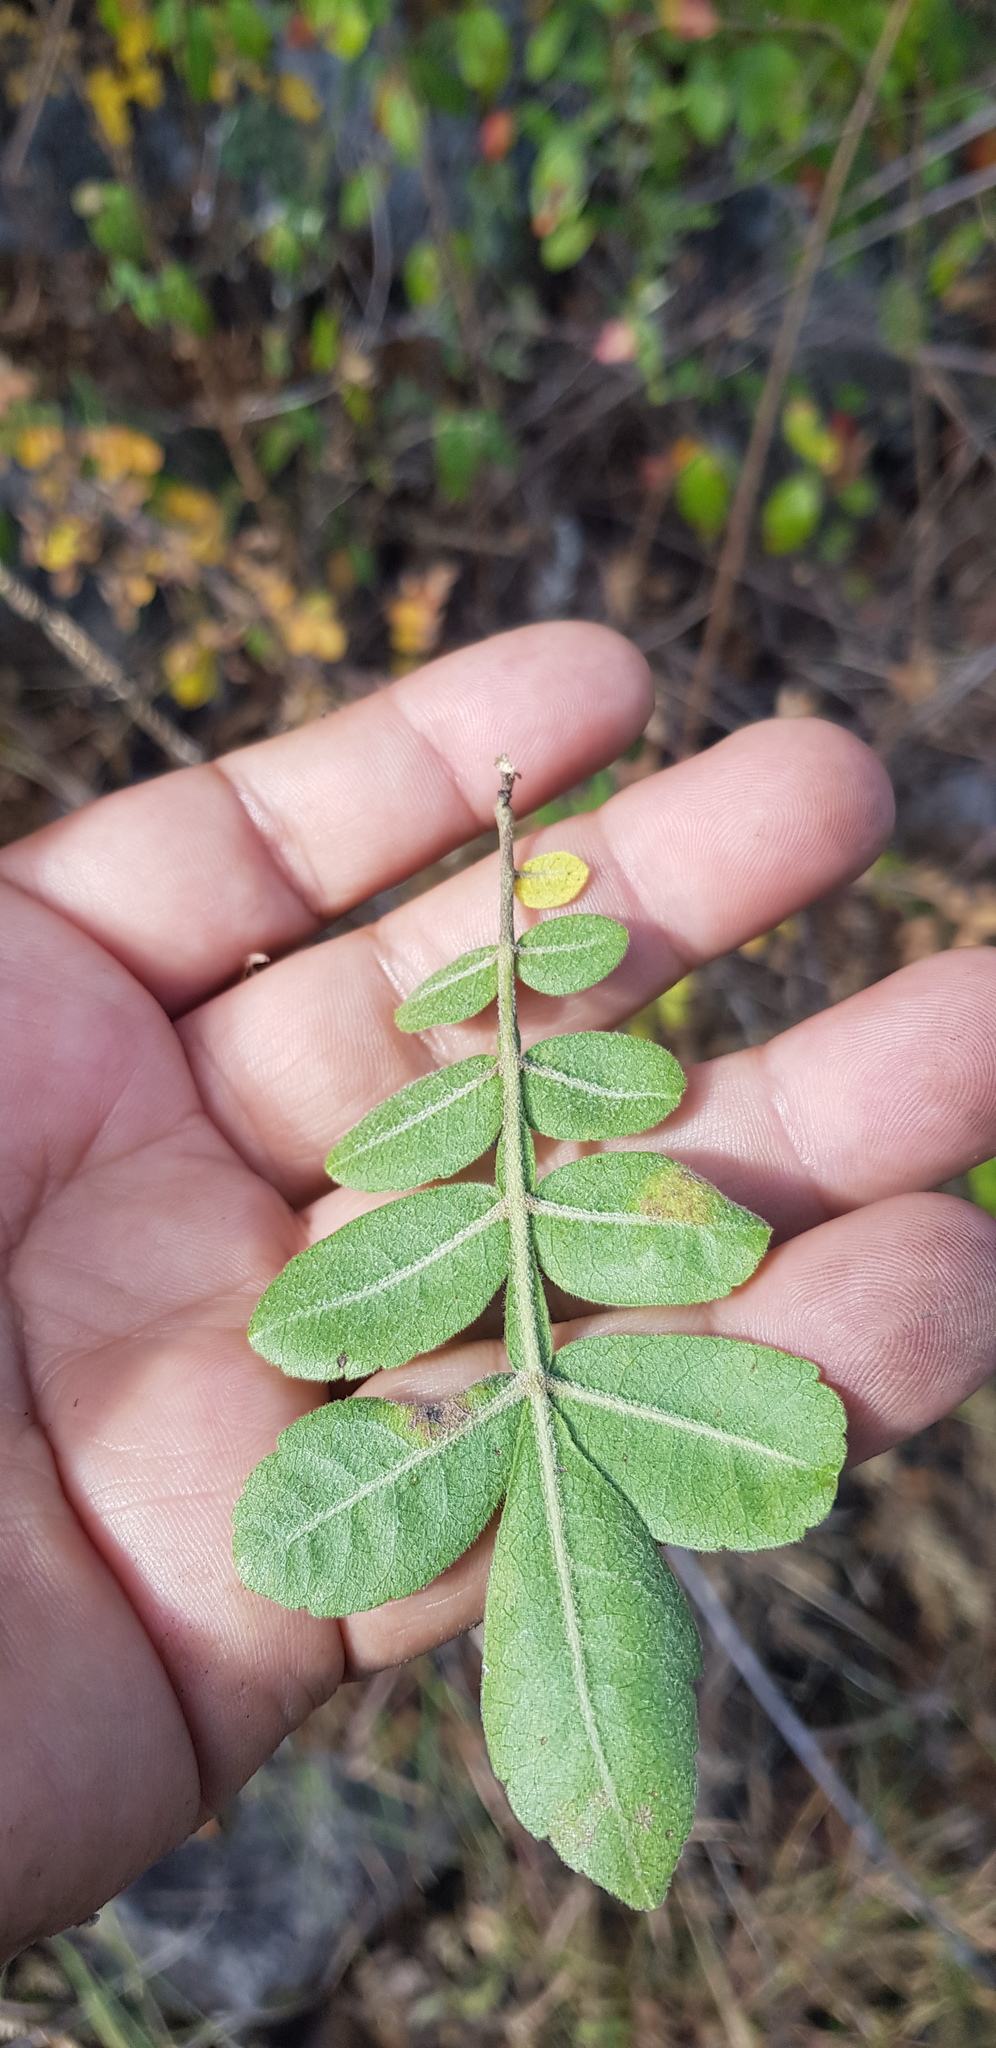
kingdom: Plantae
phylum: Tracheophyta
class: Magnoliopsida
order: Sapindales
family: Burseraceae
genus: Bursera
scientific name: Bursera fagaroides
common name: Elephant tree
